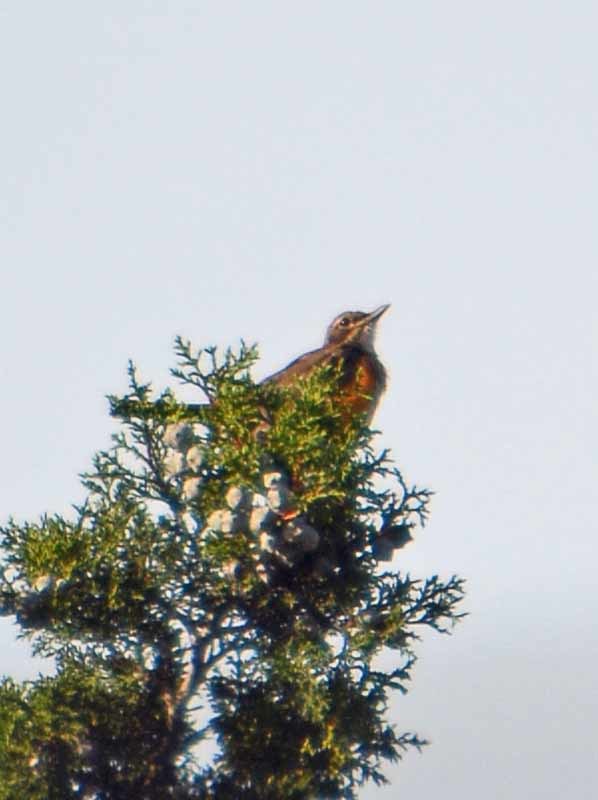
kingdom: Animalia
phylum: Chordata
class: Aves
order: Passeriformes
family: Turdidae
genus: Turdus
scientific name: Turdus migratorius
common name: American robin
